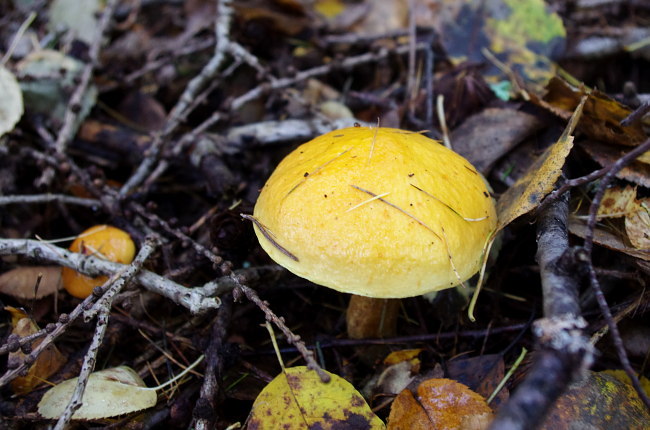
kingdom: Fungi
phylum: Basidiomycota
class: Agaricomycetes
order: Boletales
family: Suillaceae
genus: Suillus
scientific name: Suillus grevillei
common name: Larch bolete
